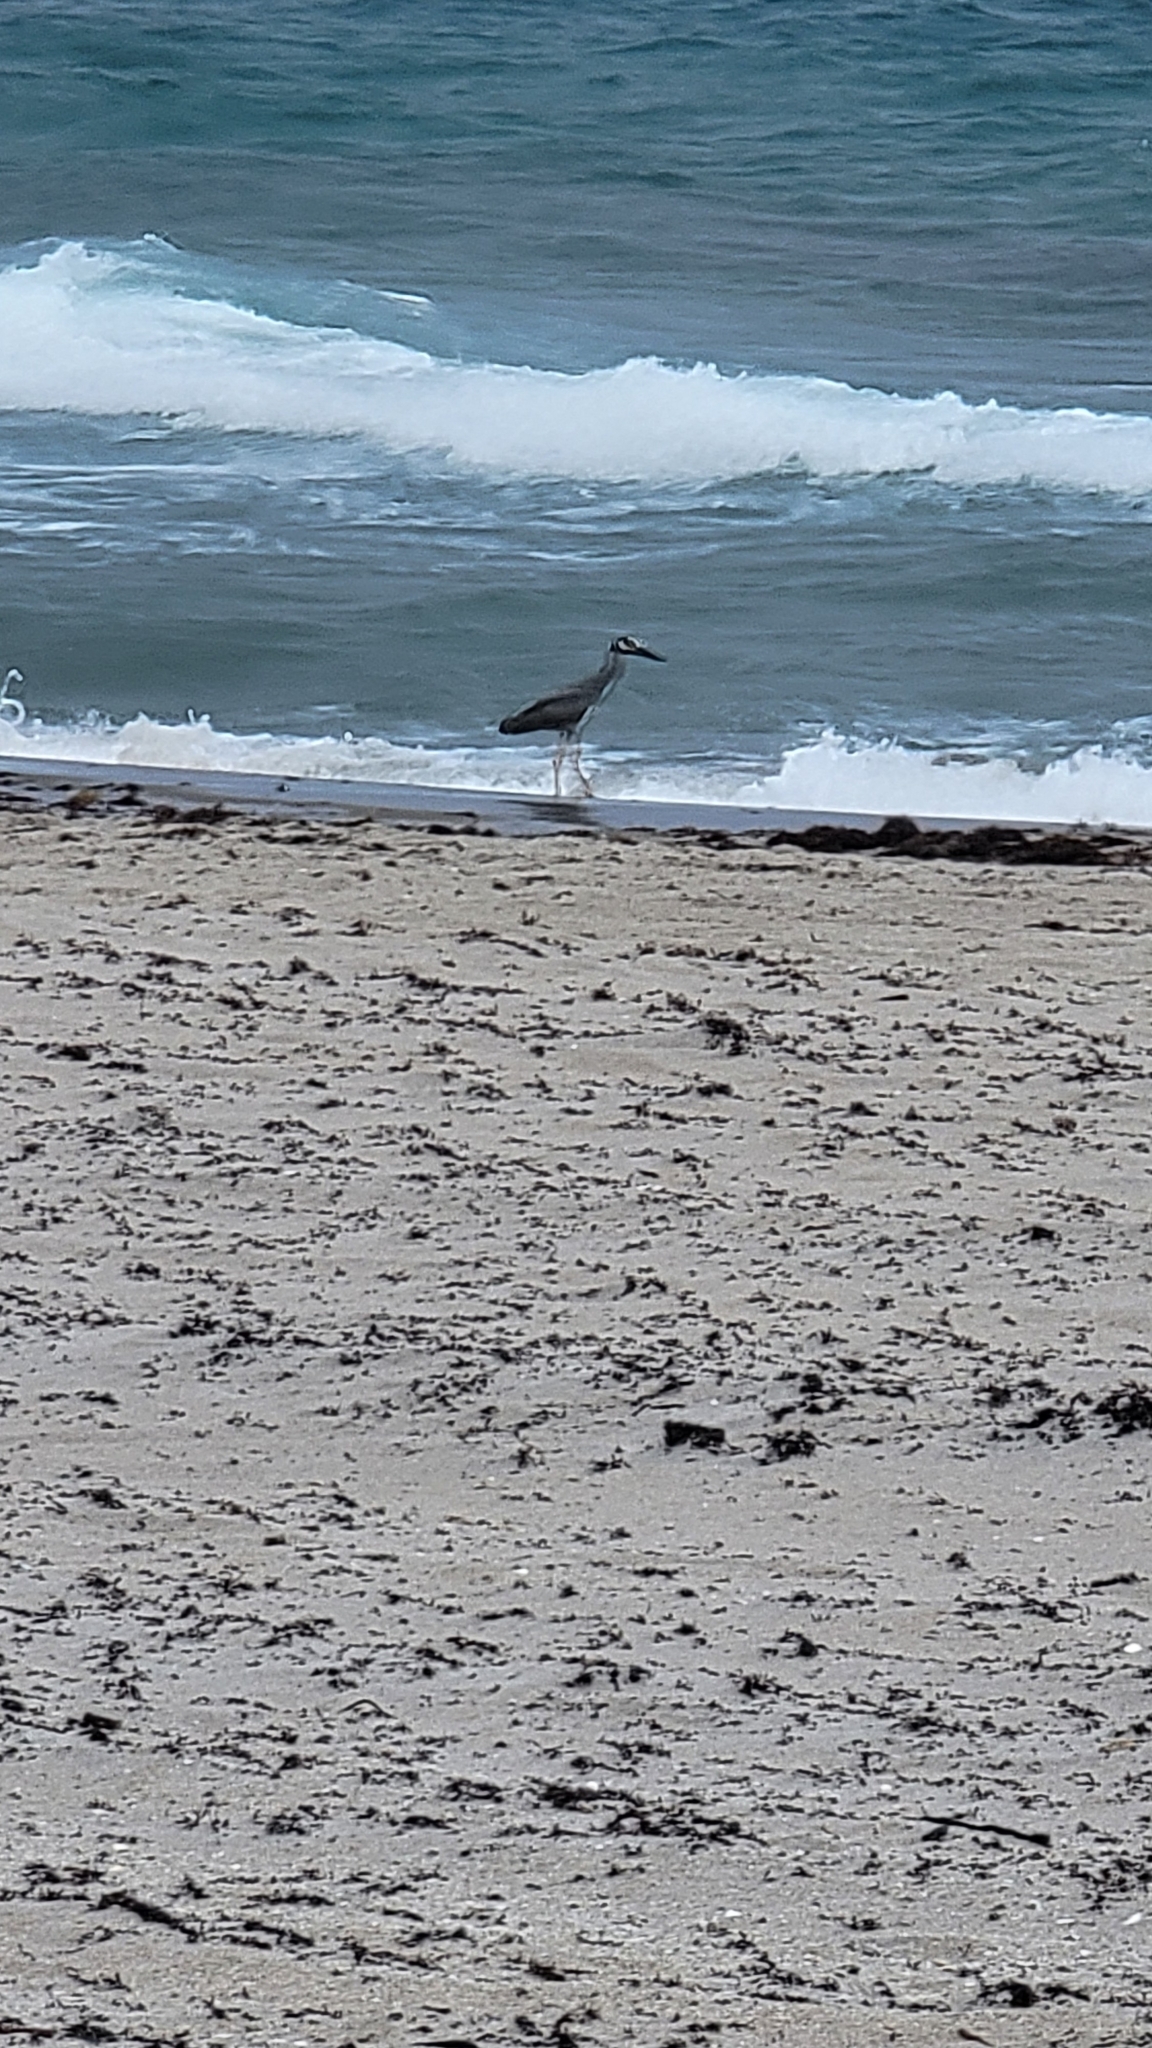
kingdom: Animalia
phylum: Chordata
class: Aves
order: Pelecaniformes
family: Ardeidae
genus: Nyctanassa
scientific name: Nyctanassa violacea
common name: Yellow-crowned night heron
